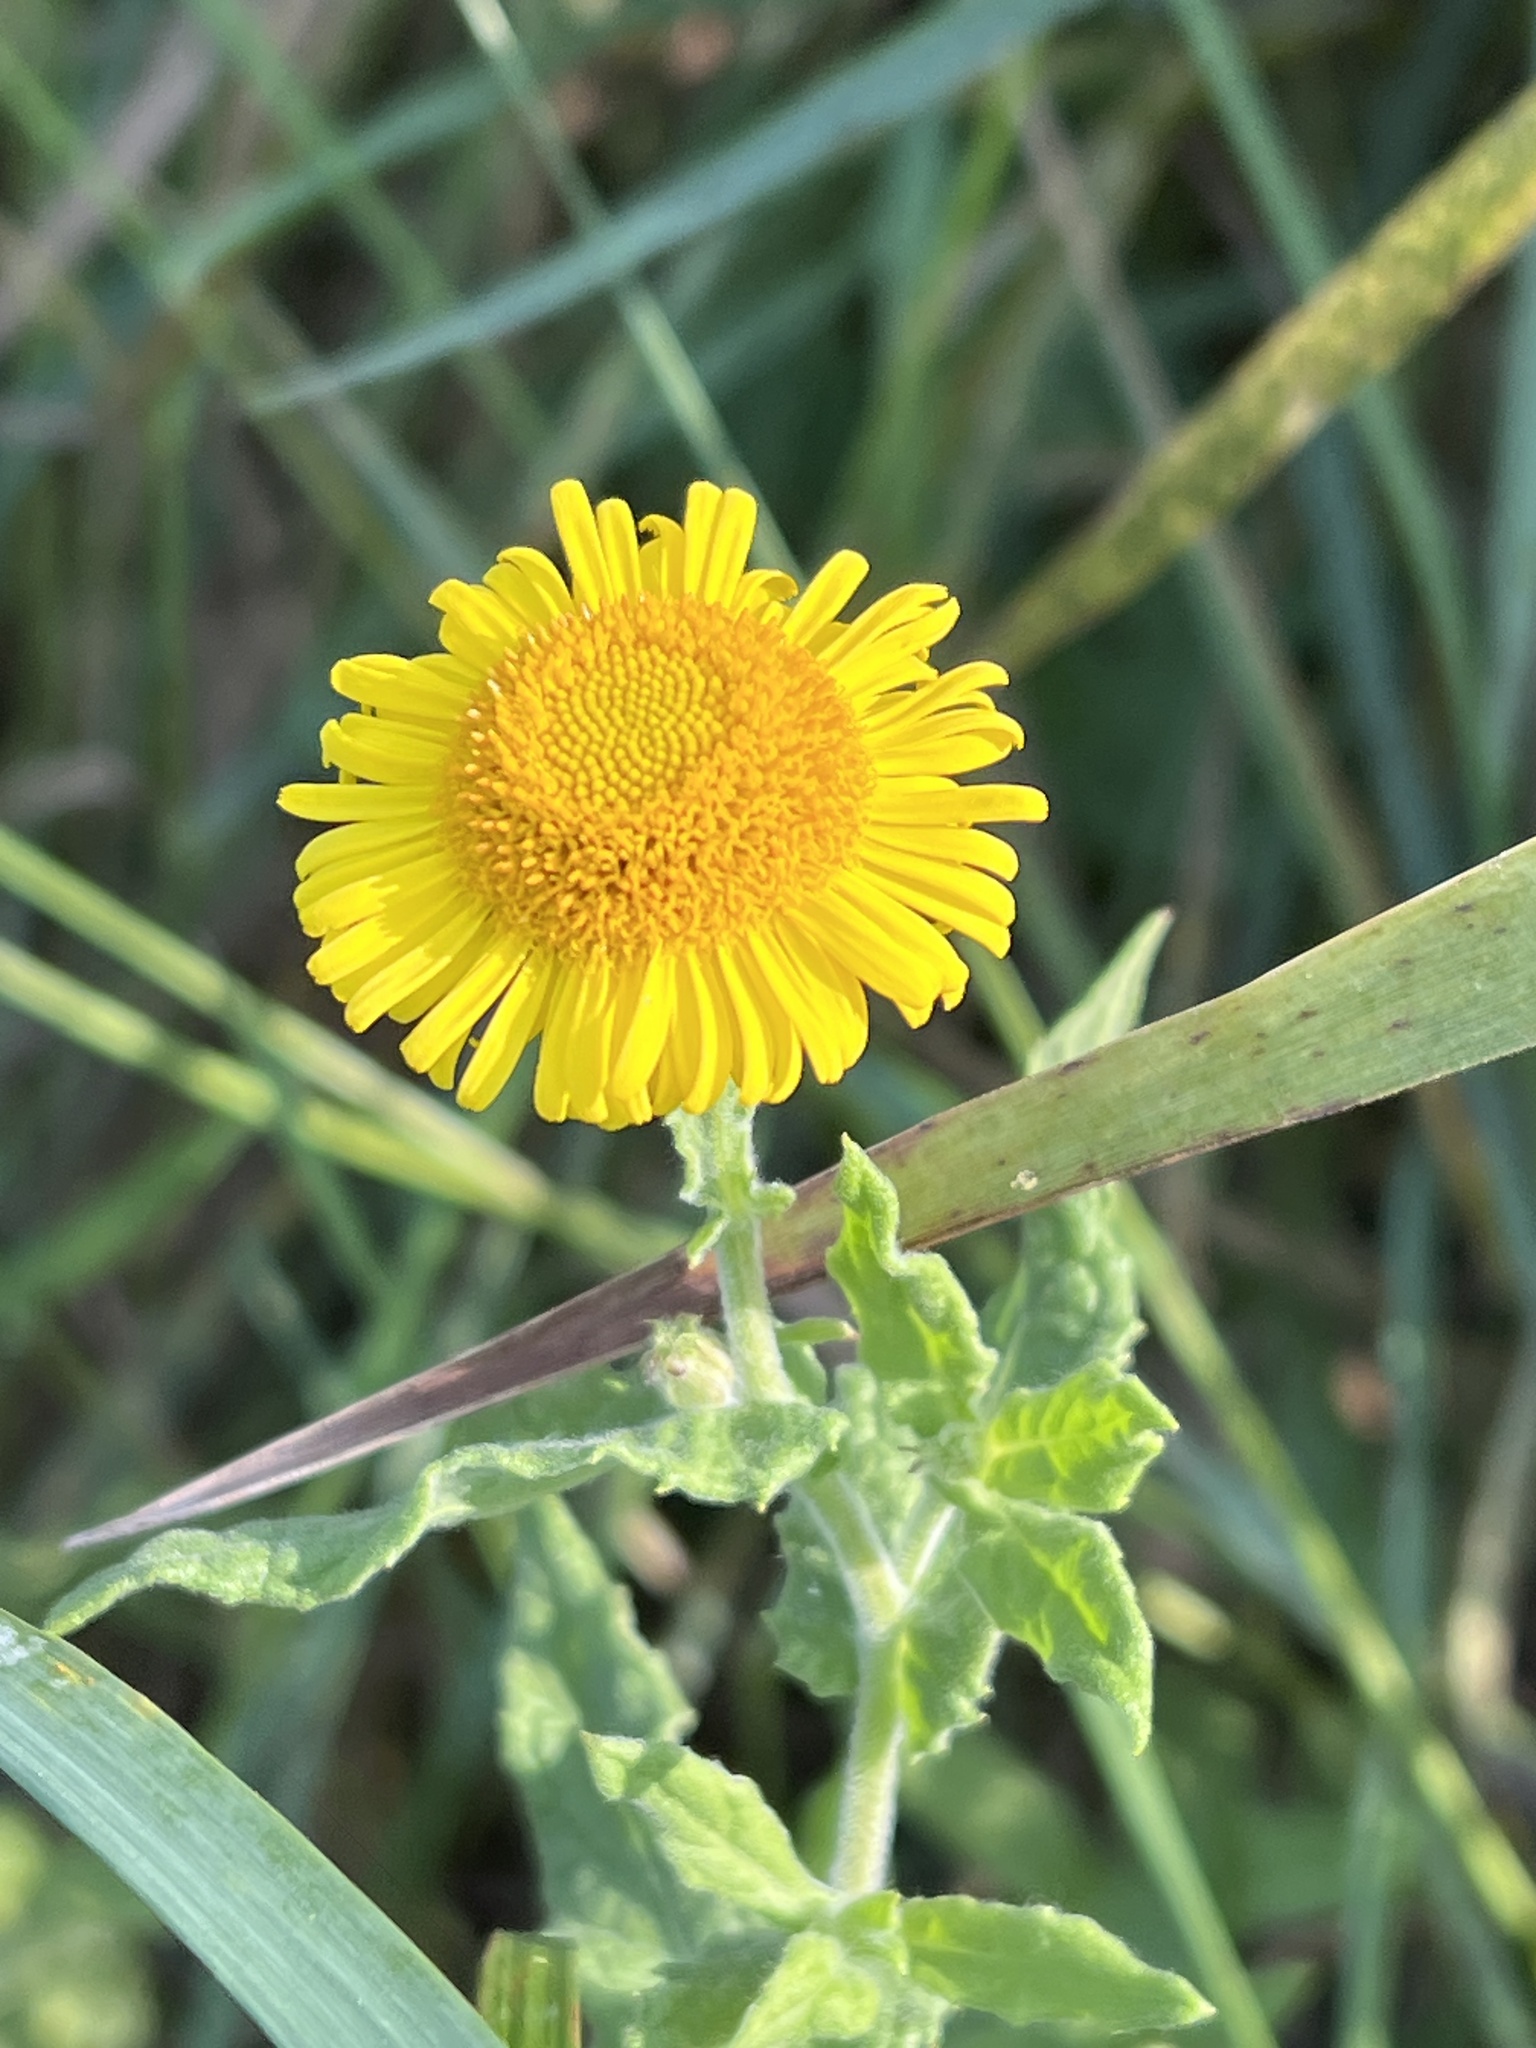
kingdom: Plantae
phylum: Tracheophyta
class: Magnoliopsida
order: Asterales
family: Asteraceae
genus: Pulicaria
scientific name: Pulicaria dysenterica
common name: Common fleabane
